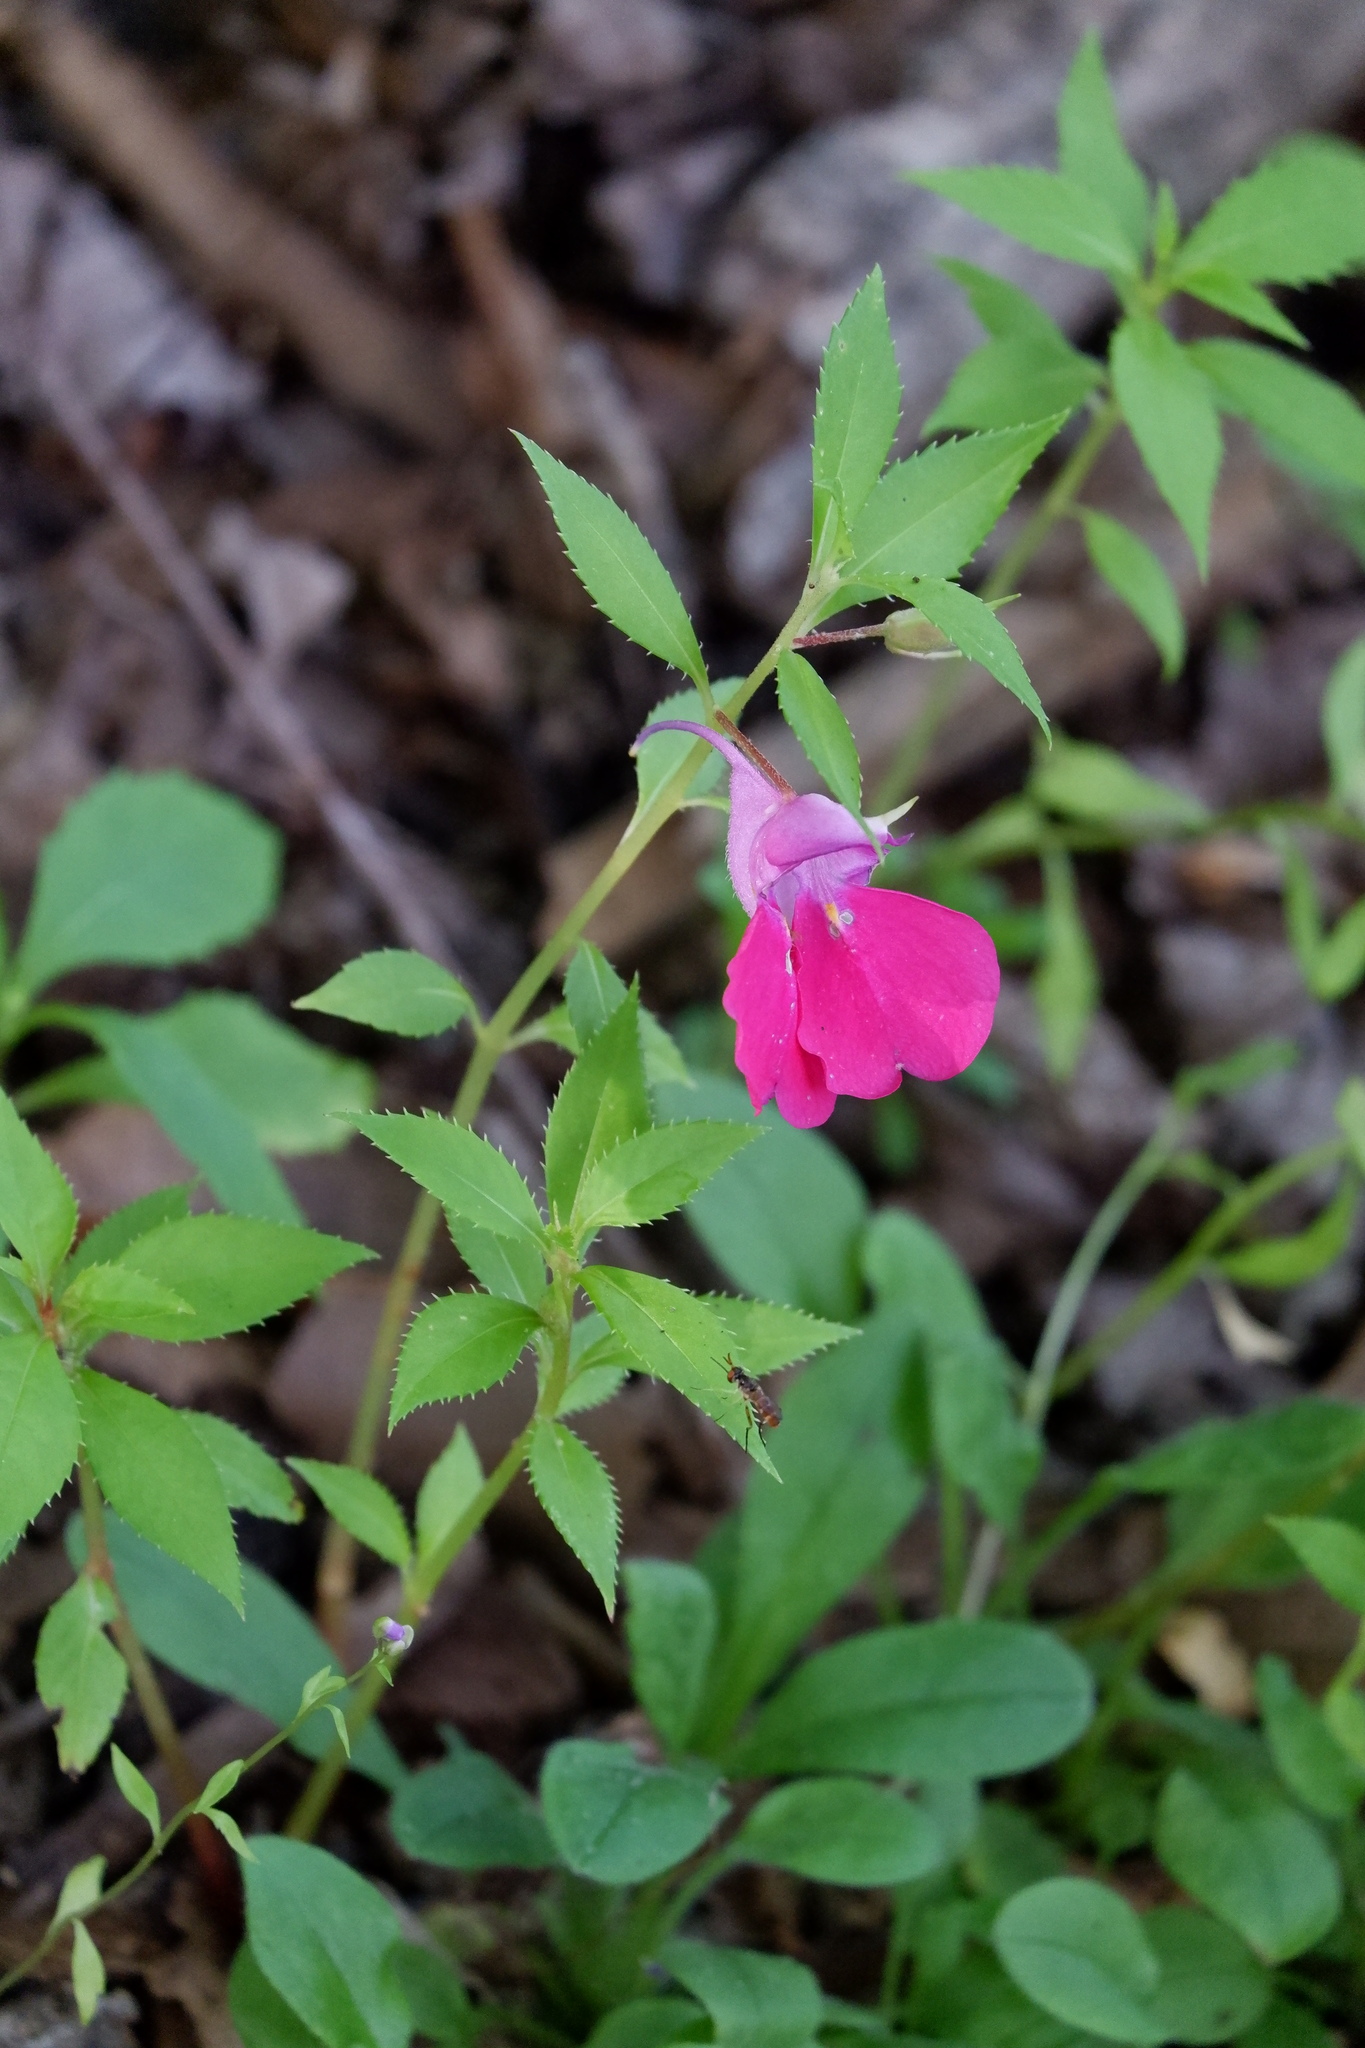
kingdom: Plantae
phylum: Tracheophyta
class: Magnoliopsida
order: Ericales
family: Balsaminaceae
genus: Impatiens
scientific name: Impatiens balsamina
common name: Balsam
